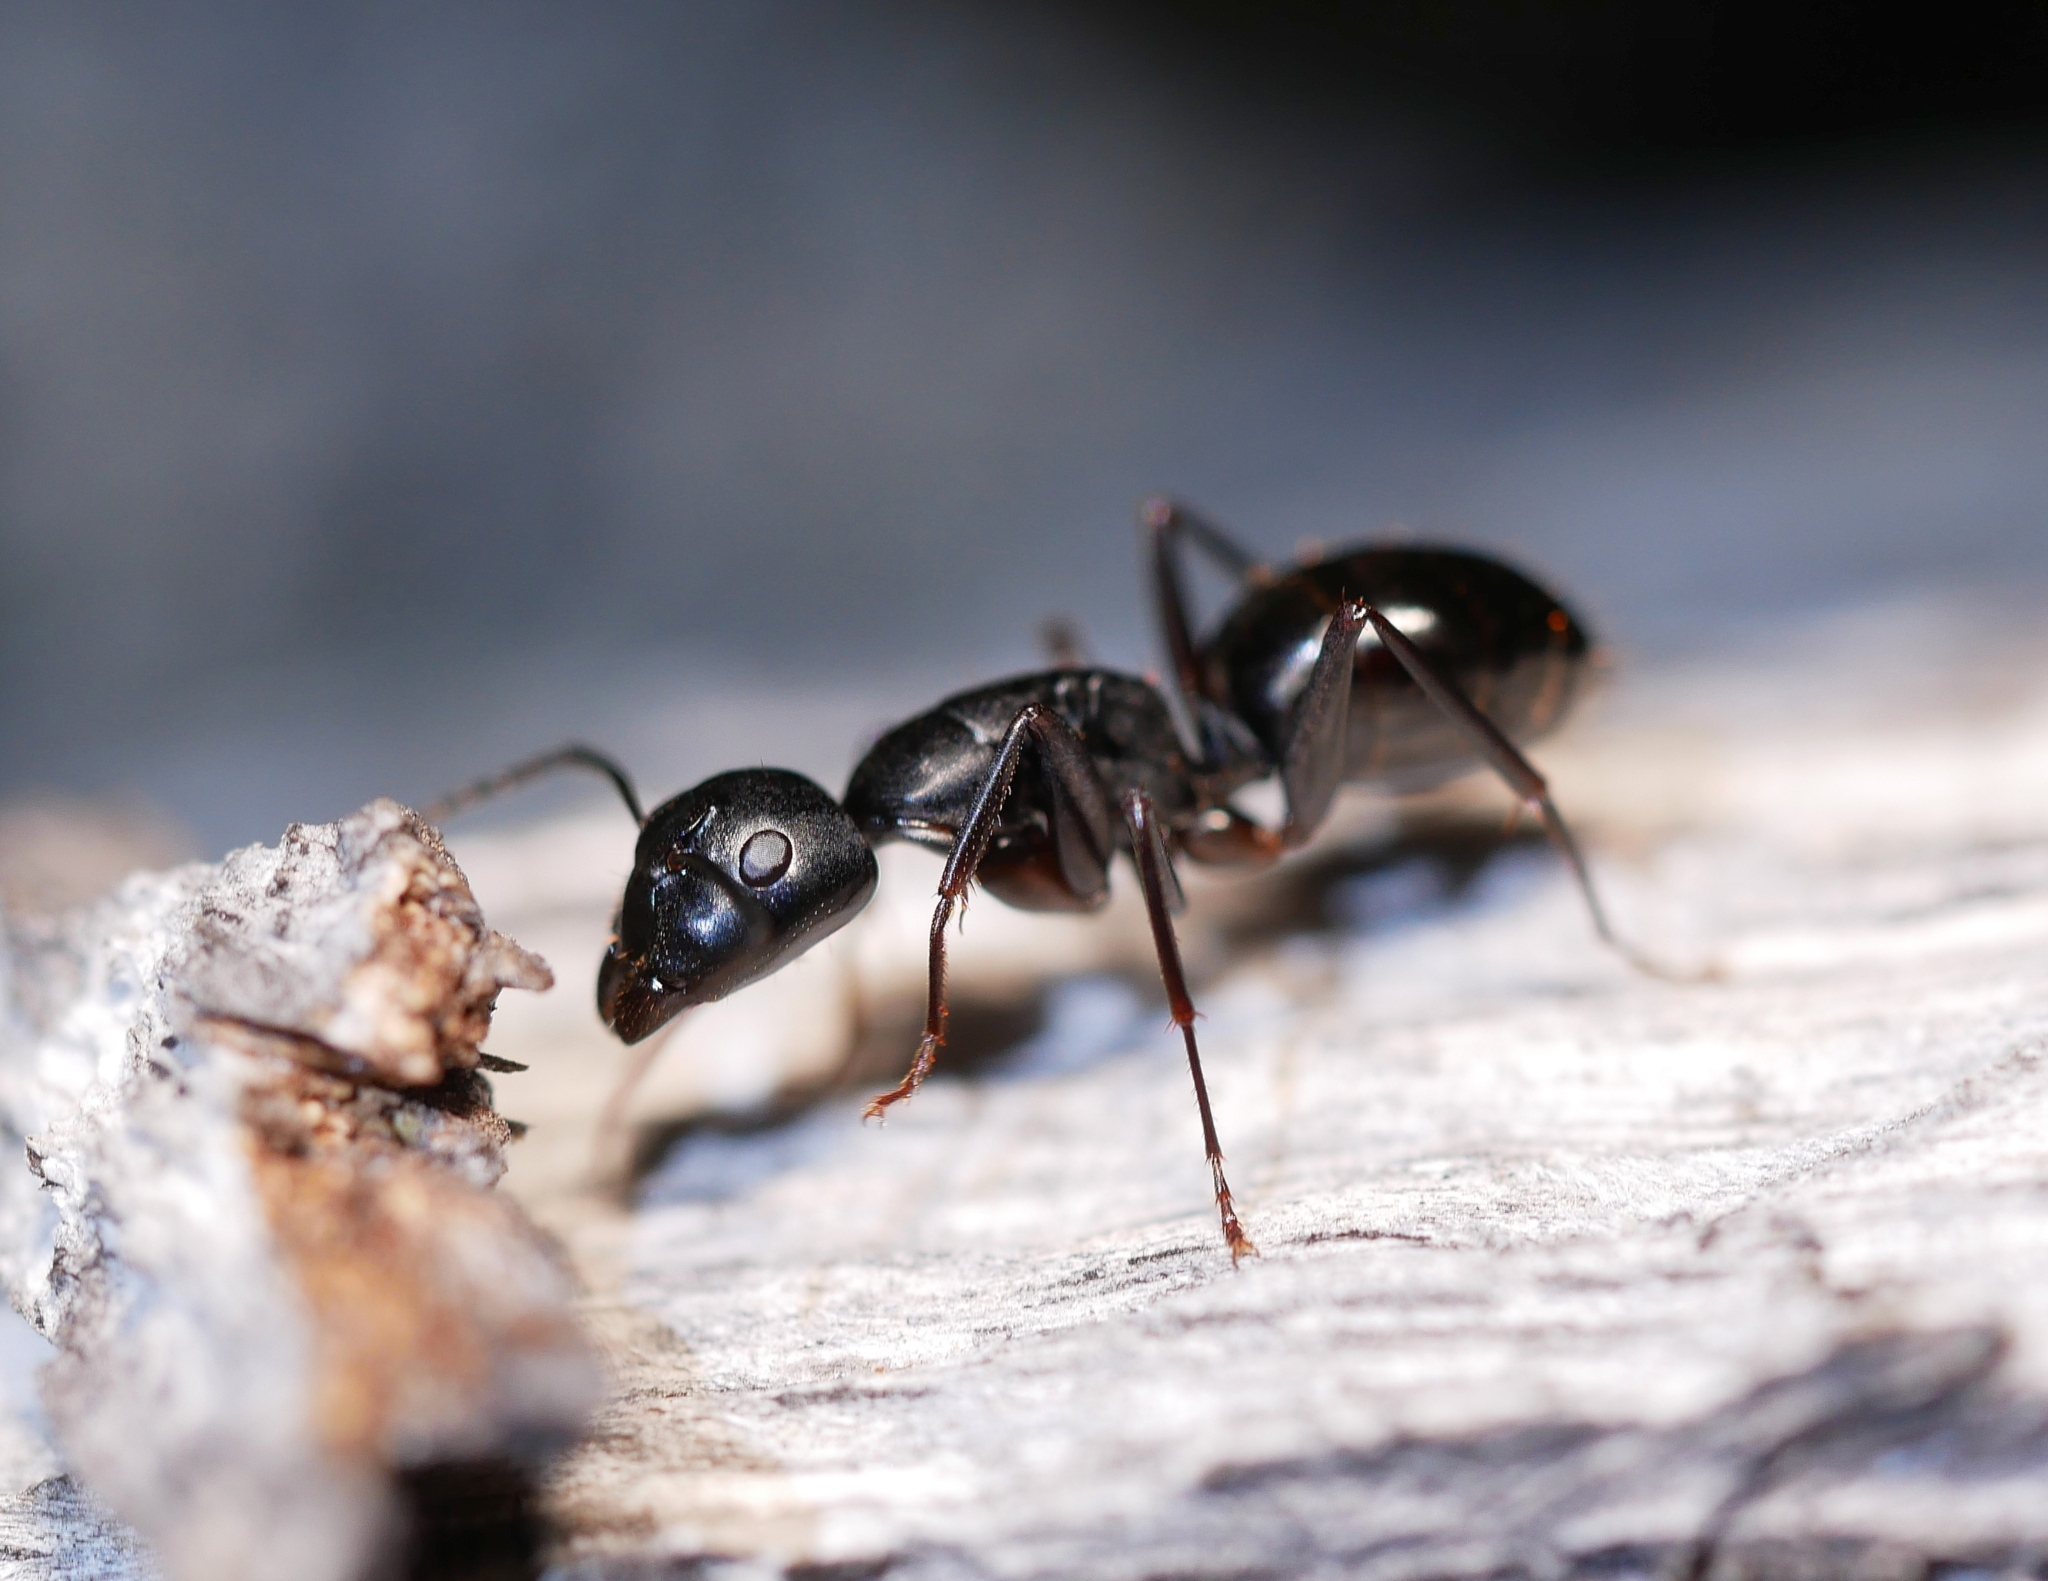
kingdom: Animalia
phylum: Arthropoda
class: Insecta
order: Hymenoptera
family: Formicidae
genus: Camponotus
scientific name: Camponotus laevigatus
